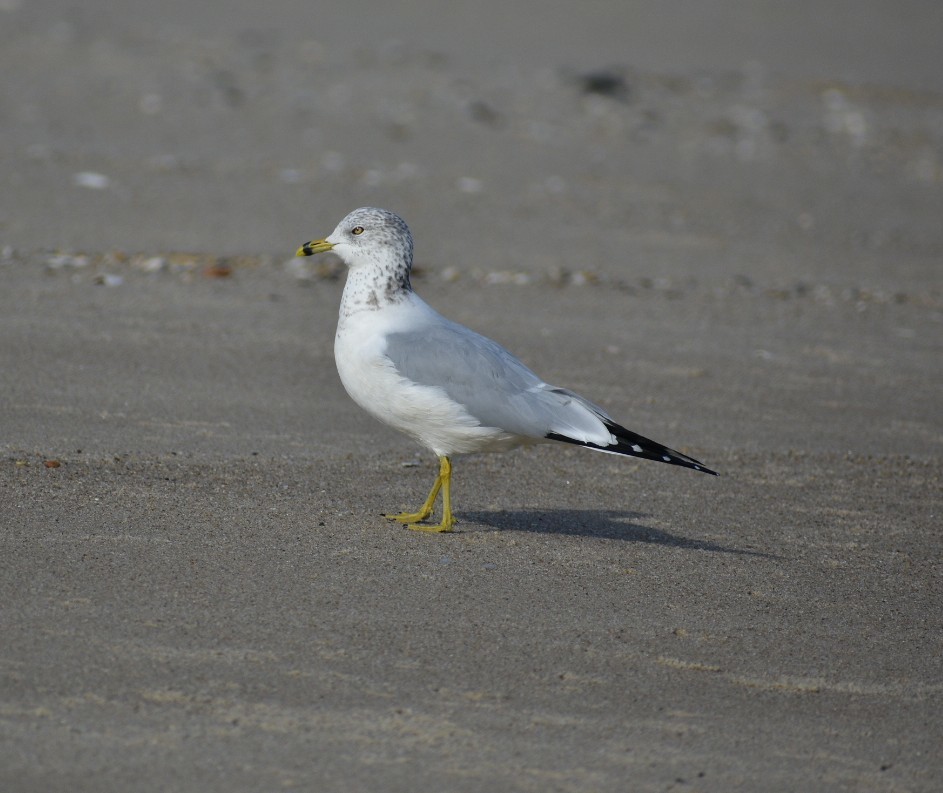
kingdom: Animalia
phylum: Chordata
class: Aves
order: Charadriiformes
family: Laridae
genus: Larus
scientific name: Larus delawarensis
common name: Ring-billed gull
